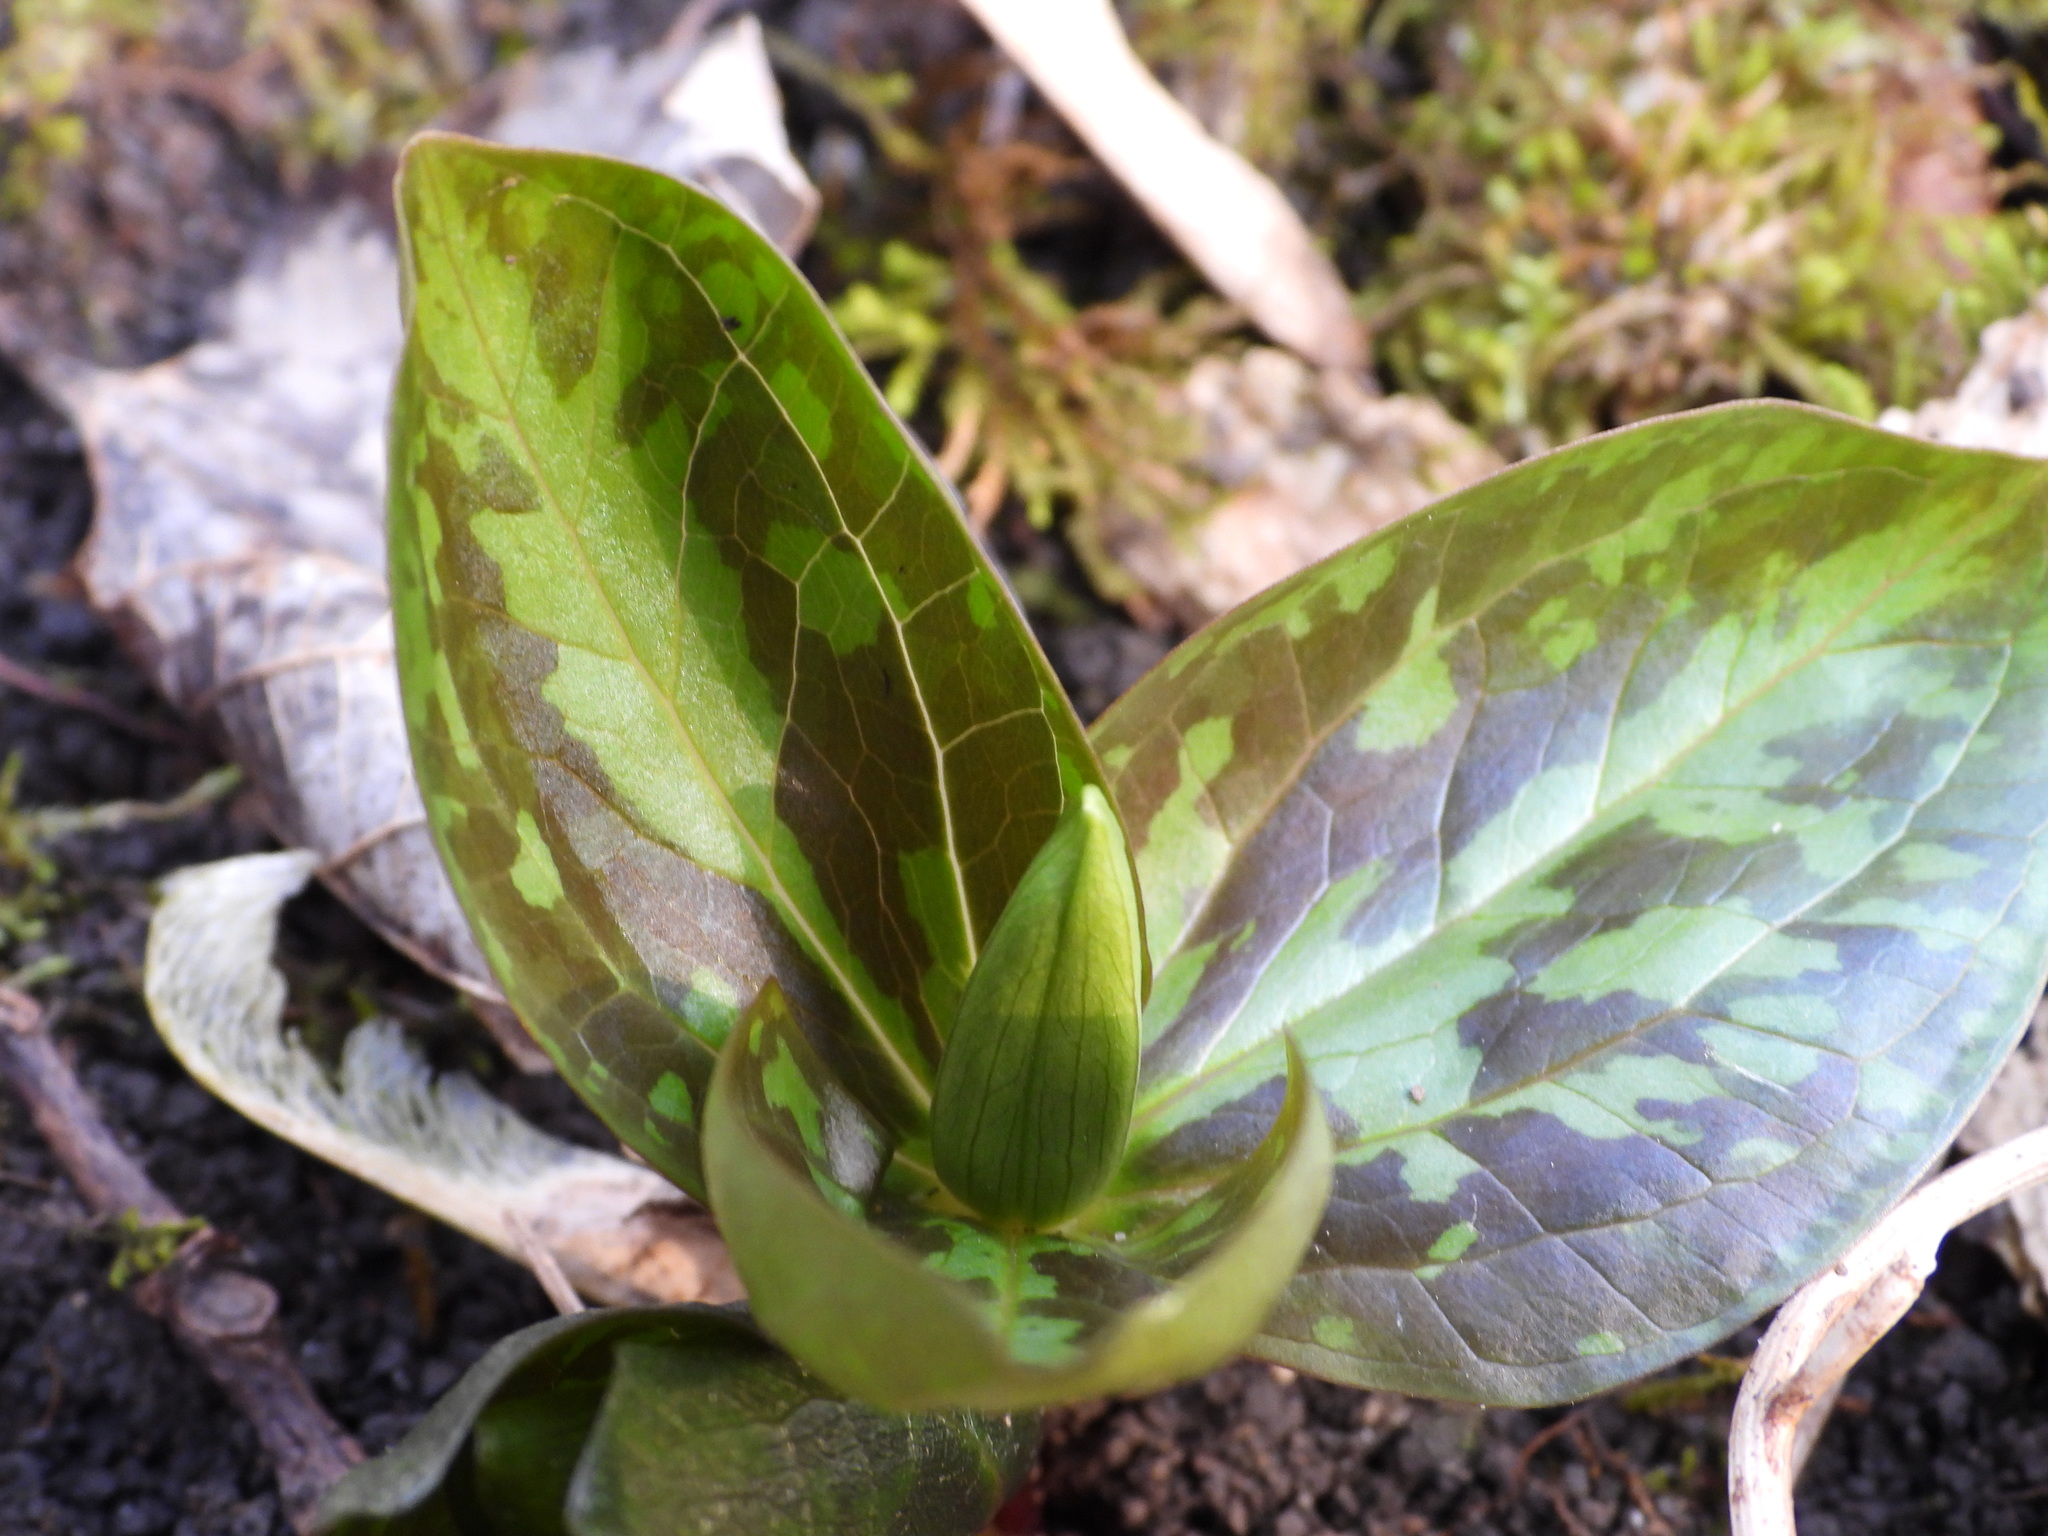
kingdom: Plantae
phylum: Tracheophyta
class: Liliopsida
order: Liliales
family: Melanthiaceae
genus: Trillium
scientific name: Trillium sessile
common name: Sessile trillium
